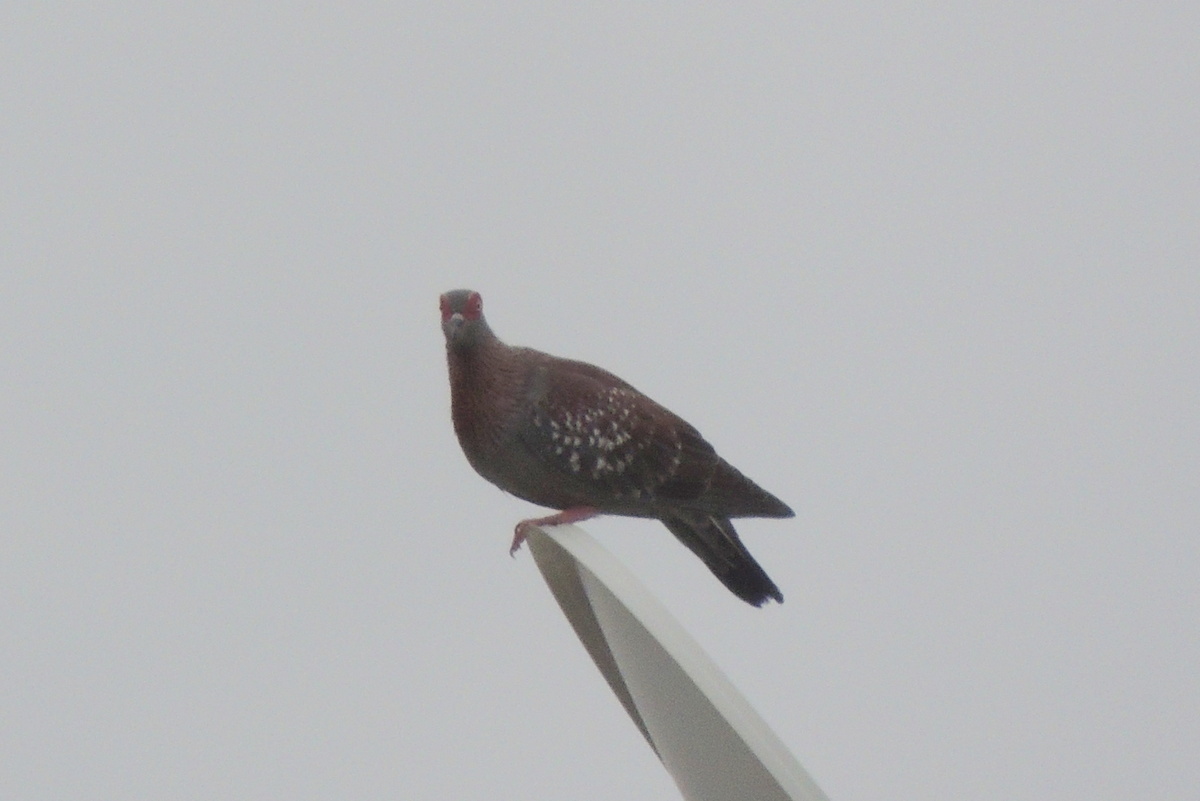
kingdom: Animalia
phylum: Chordata
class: Aves
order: Columbiformes
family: Columbidae
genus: Columba
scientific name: Columba guinea
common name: Speckled pigeon
